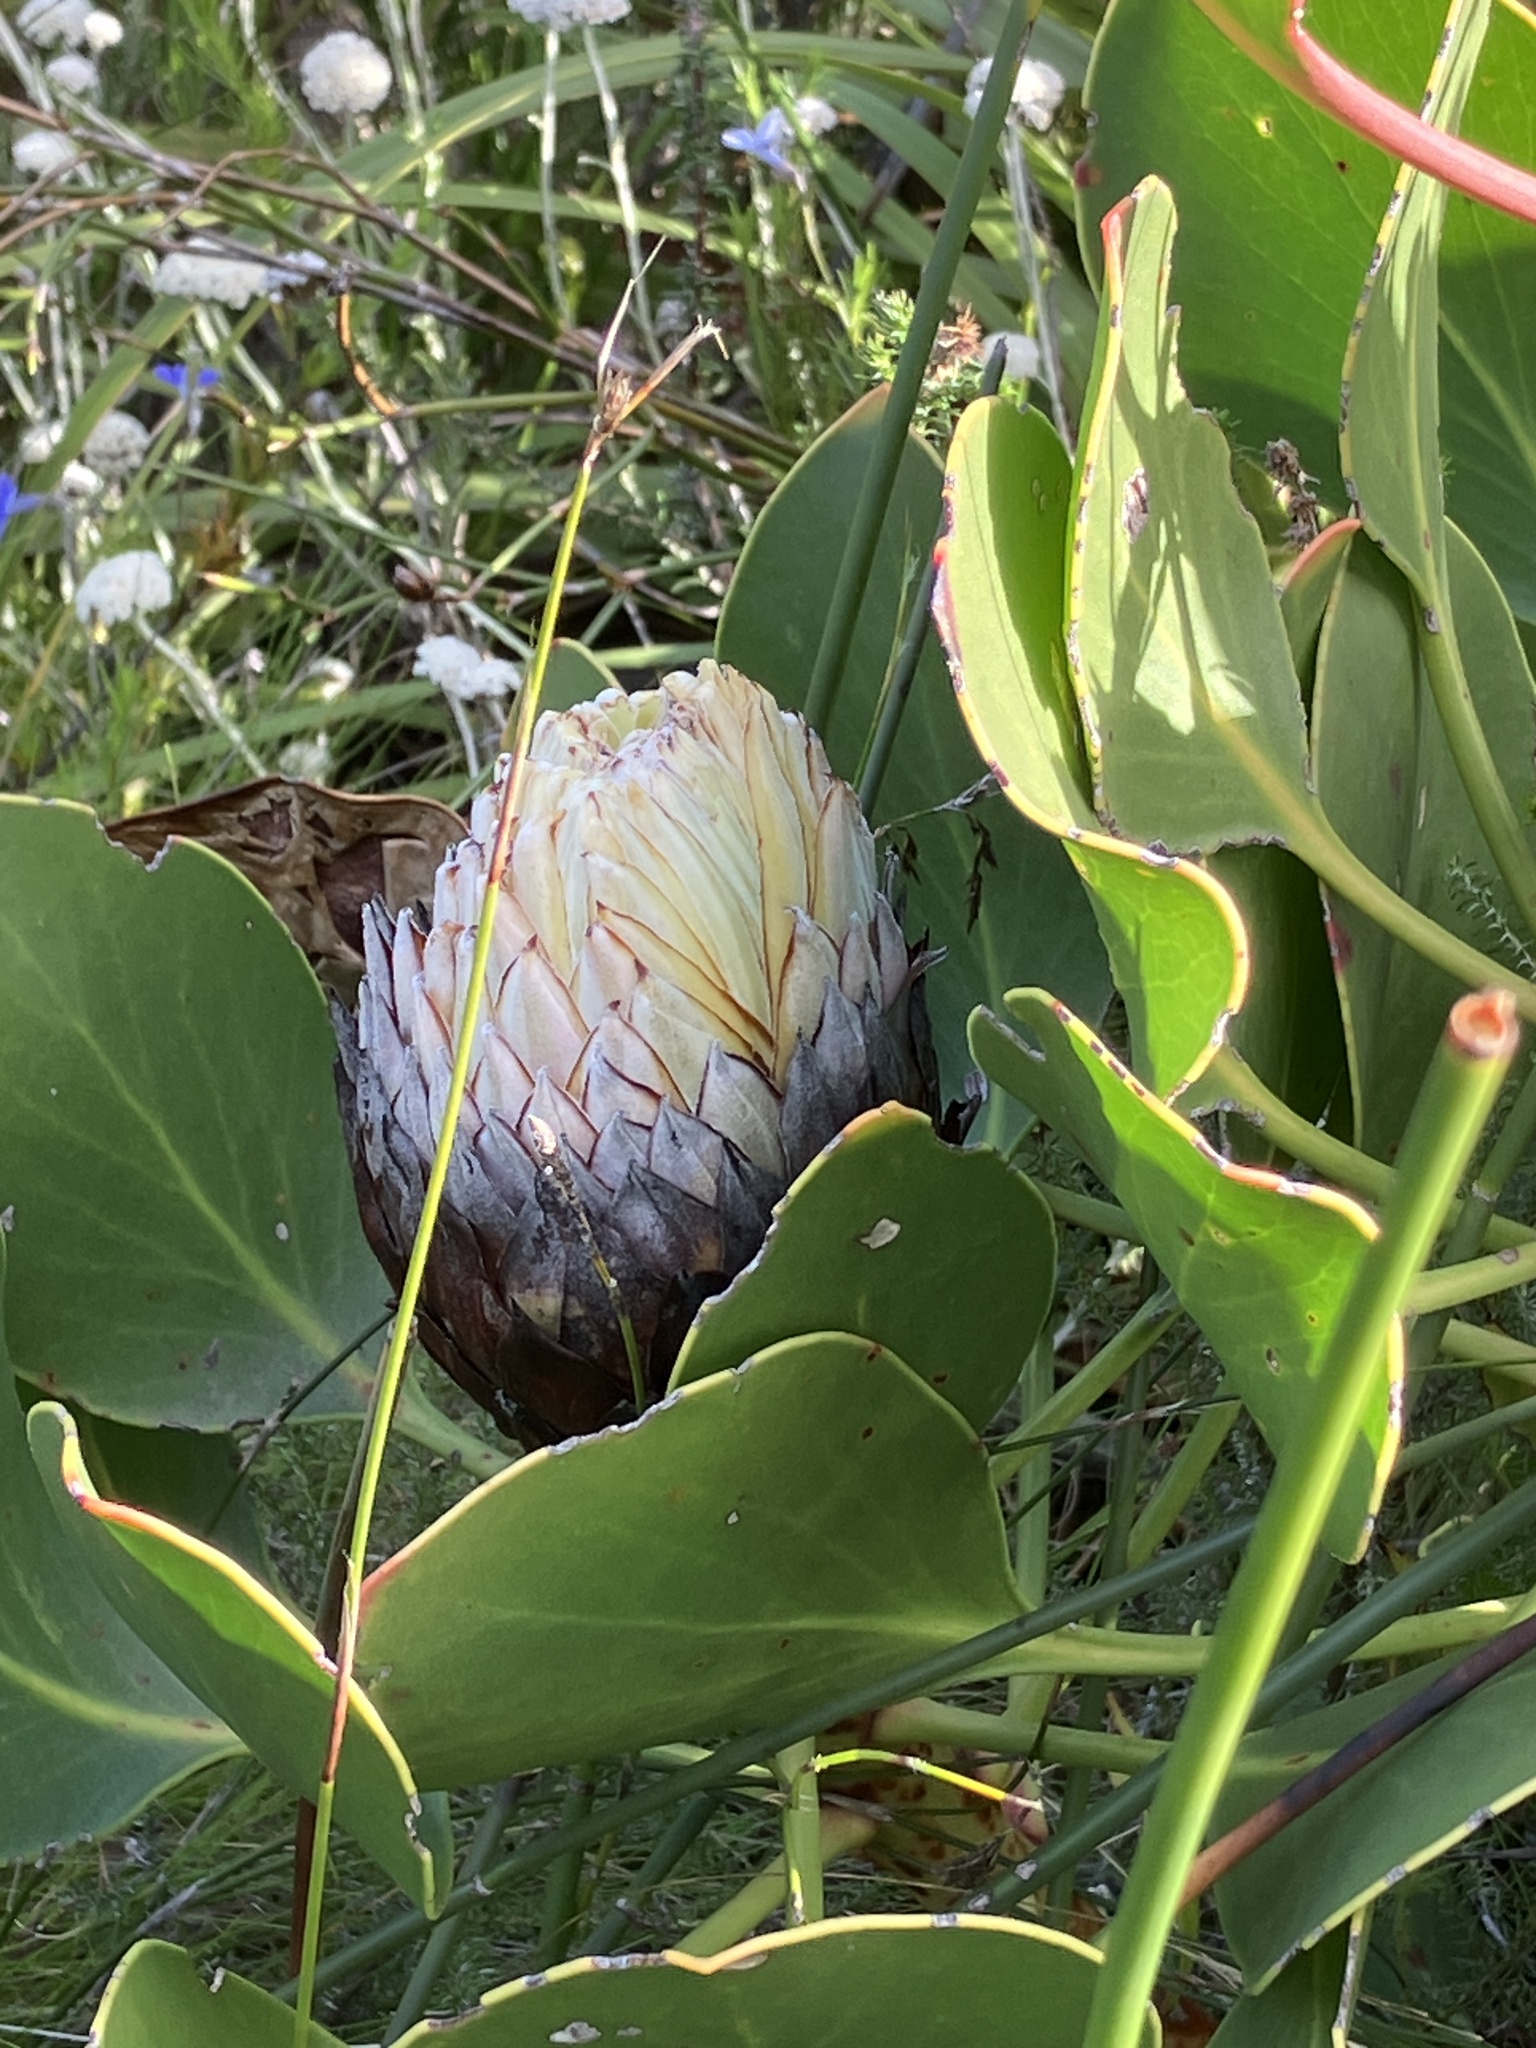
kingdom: Plantae
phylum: Tracheophyta
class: Magnoliopsida
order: Proteales
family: Proteaceae
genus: Protea
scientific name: Protea cynaroides
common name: King protea
